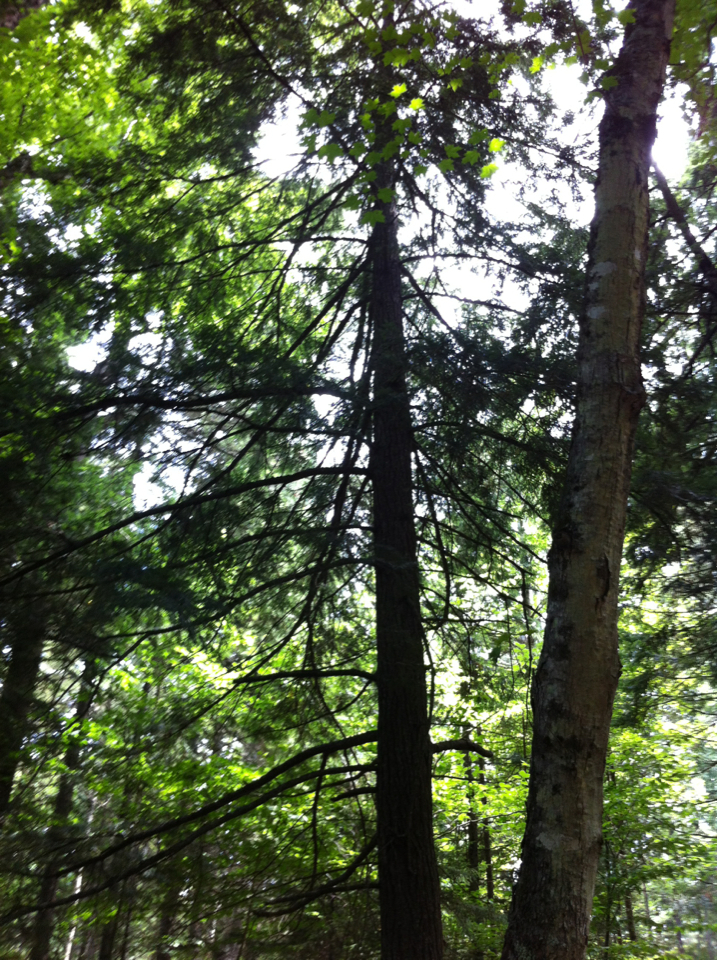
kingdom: Plantae
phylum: Tracheophyta
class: Pinopsida
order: Pinales
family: Pinaceae
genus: Tsuga
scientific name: Tsuga canadensis
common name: Eastern hemlock
